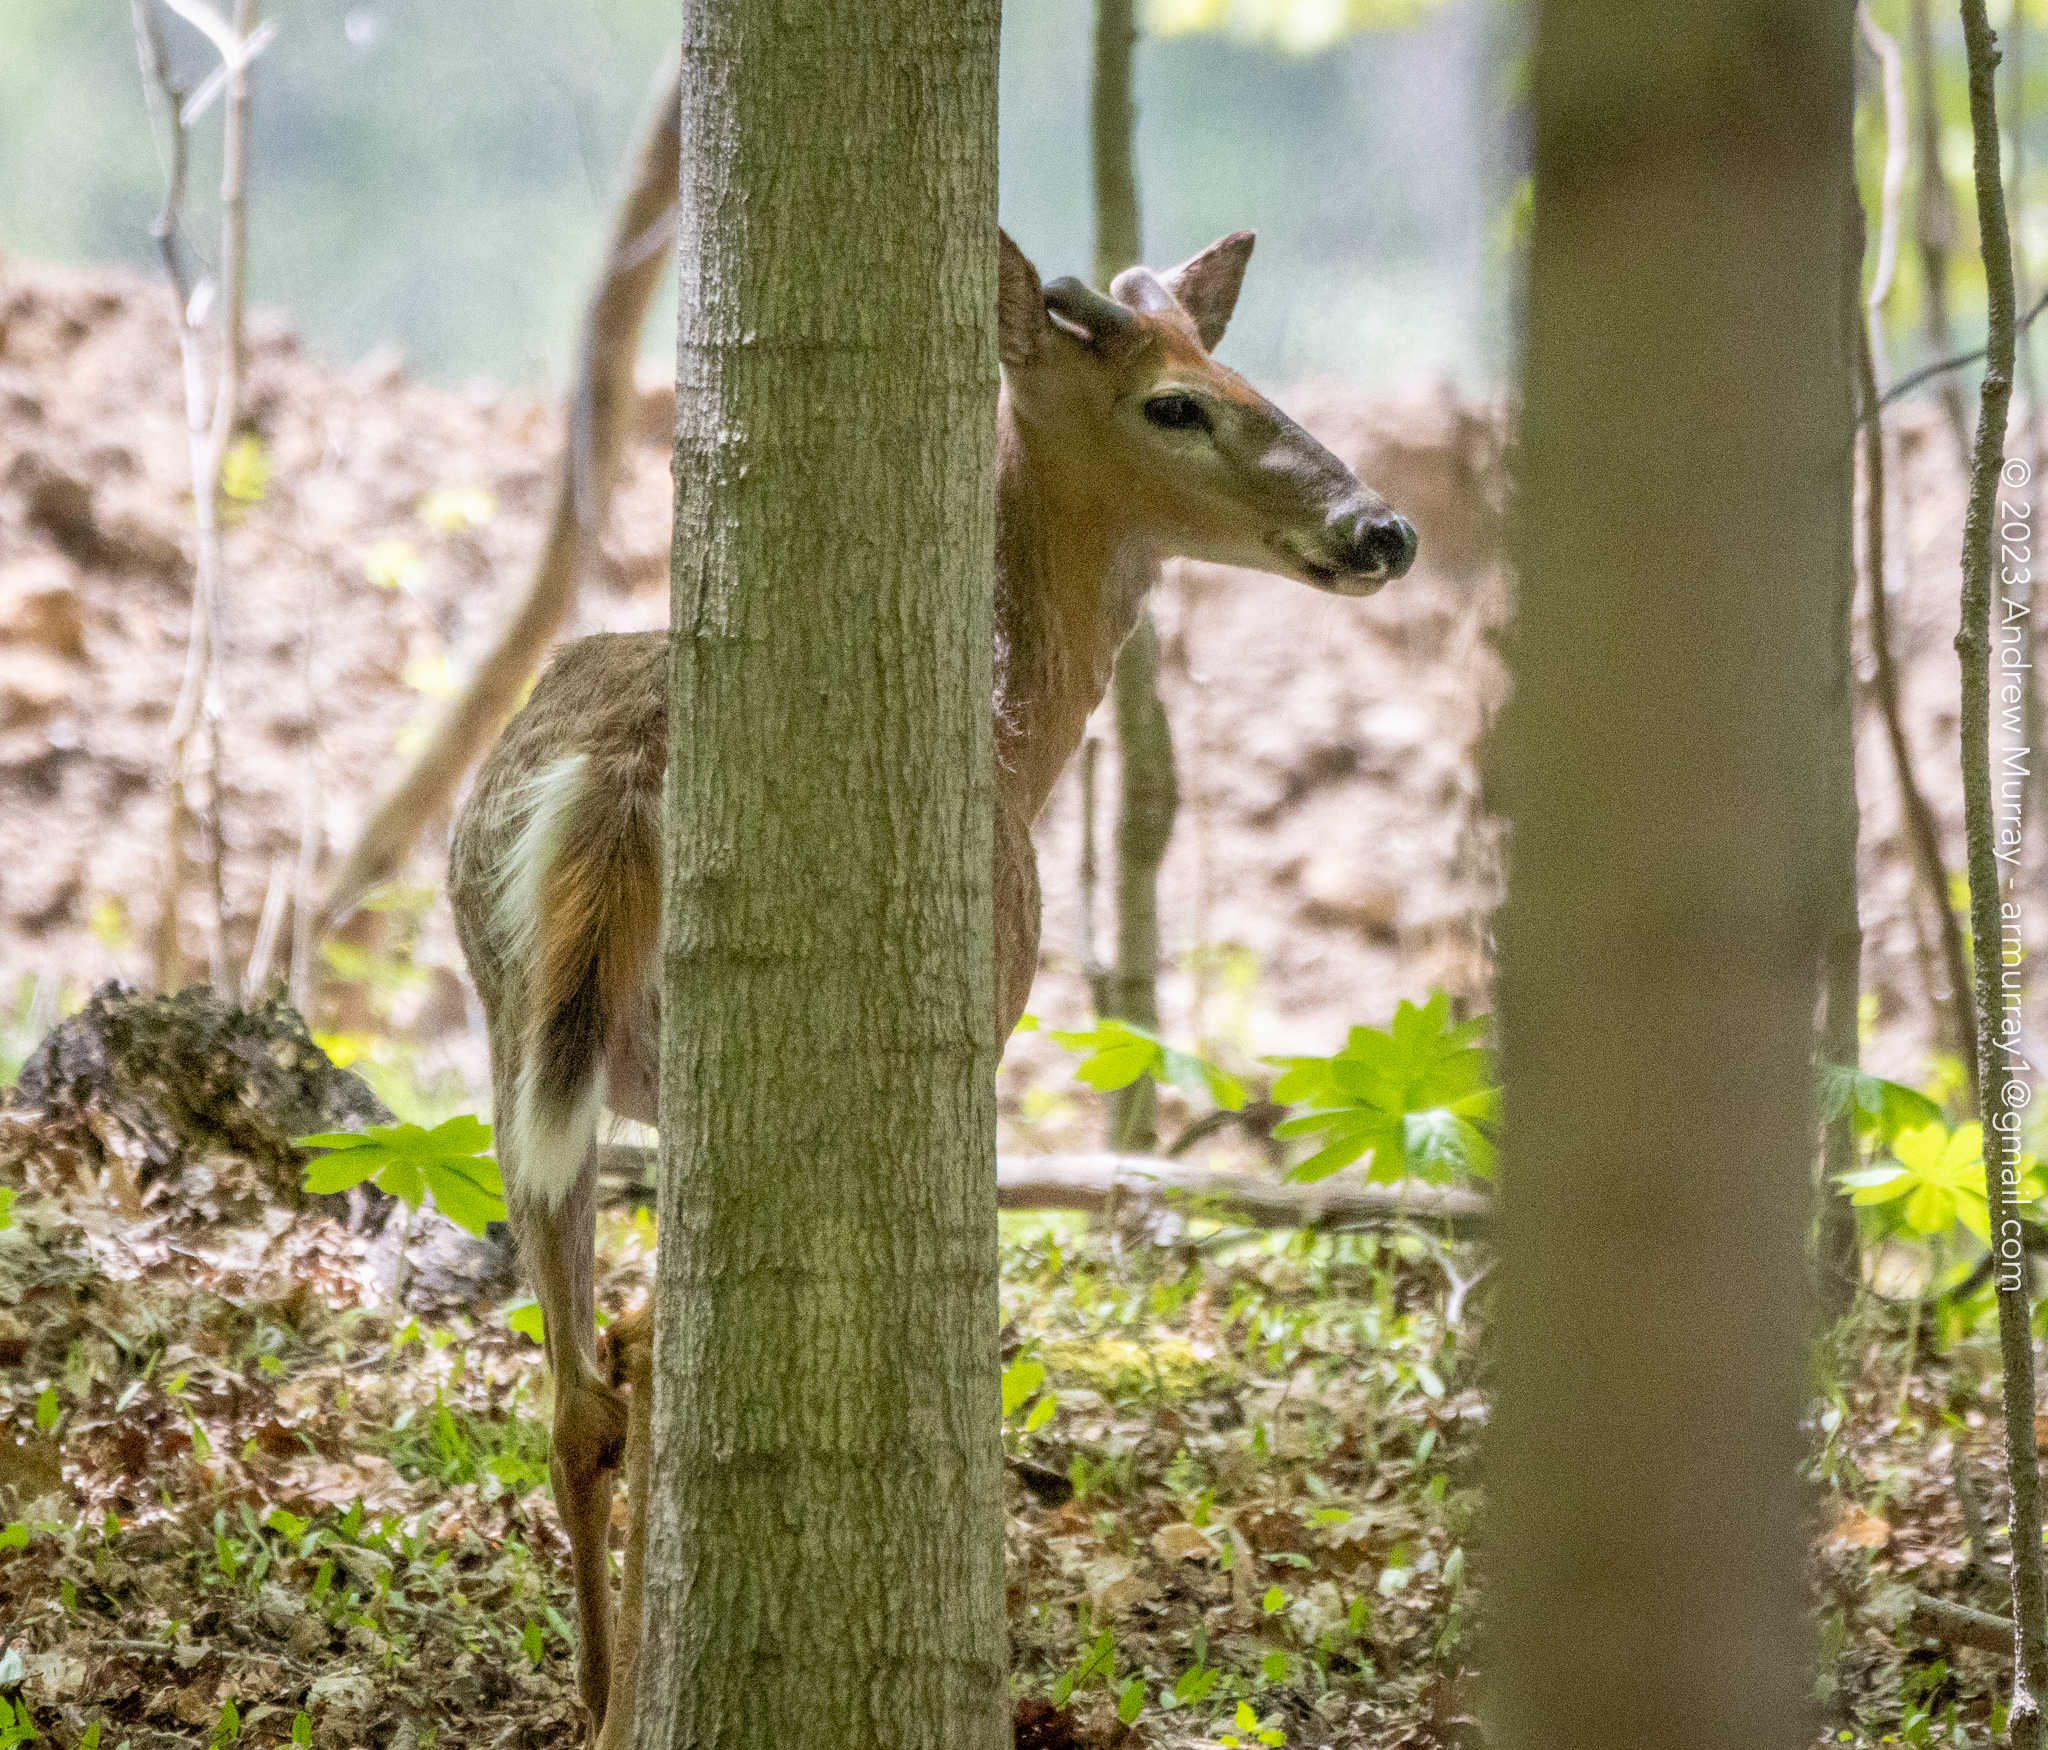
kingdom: Animalia
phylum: Chordata
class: Mammalia
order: Artiodactyla
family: Cervidae
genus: Odocoileus
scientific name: Odocoileus virginianus
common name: White-tailed deer
